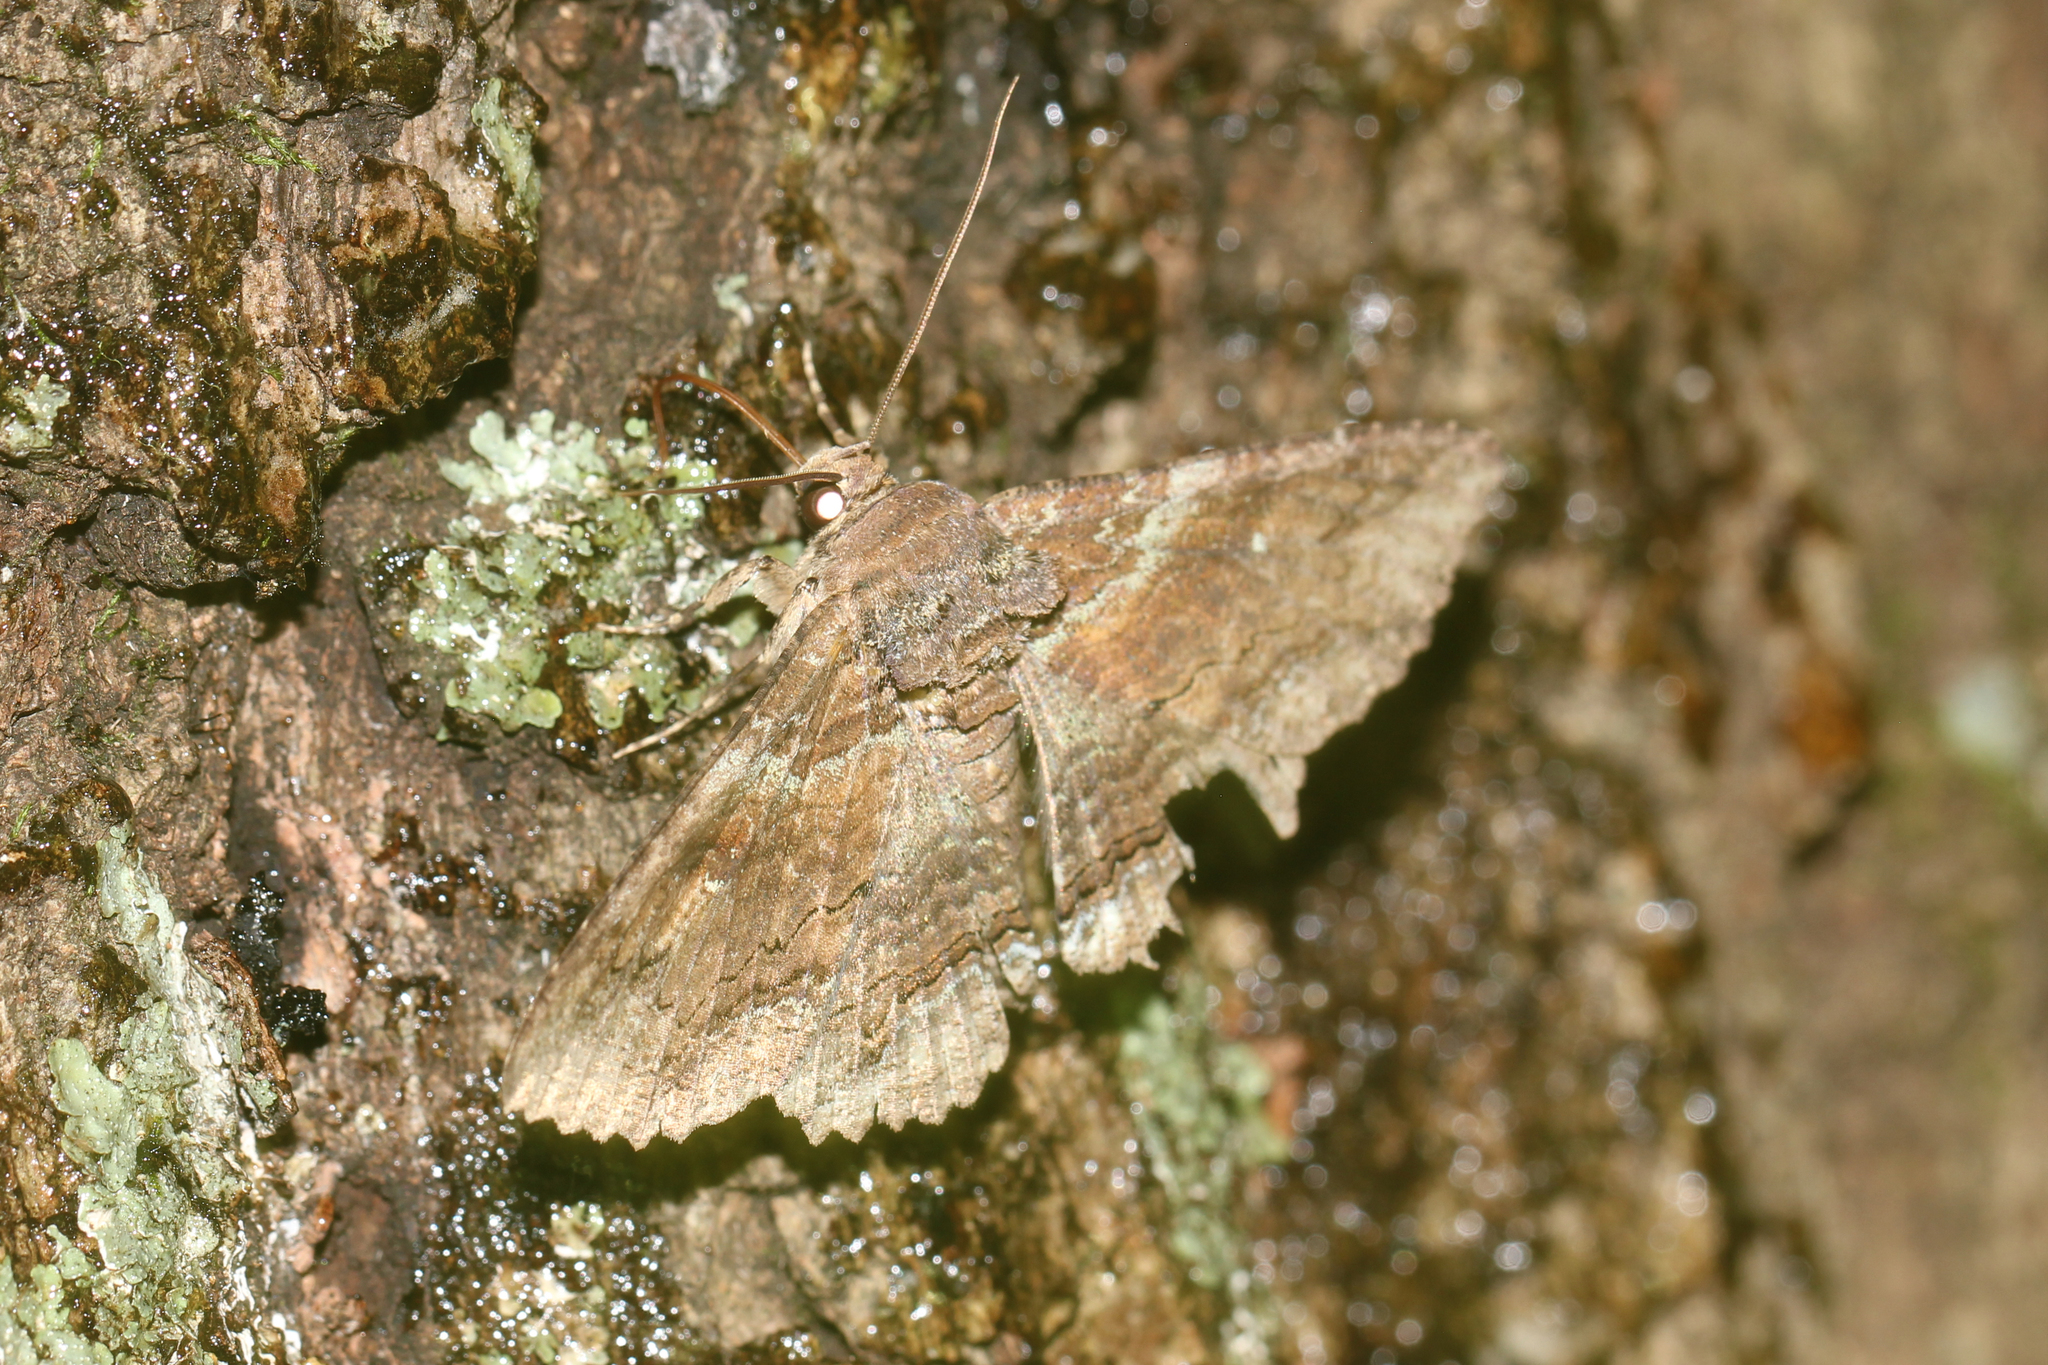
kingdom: Animalia
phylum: Arthropoda
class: Insecta
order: Lepidoptera
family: Erebidae
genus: Zale
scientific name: Zale lunata
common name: Lunate zale moth
